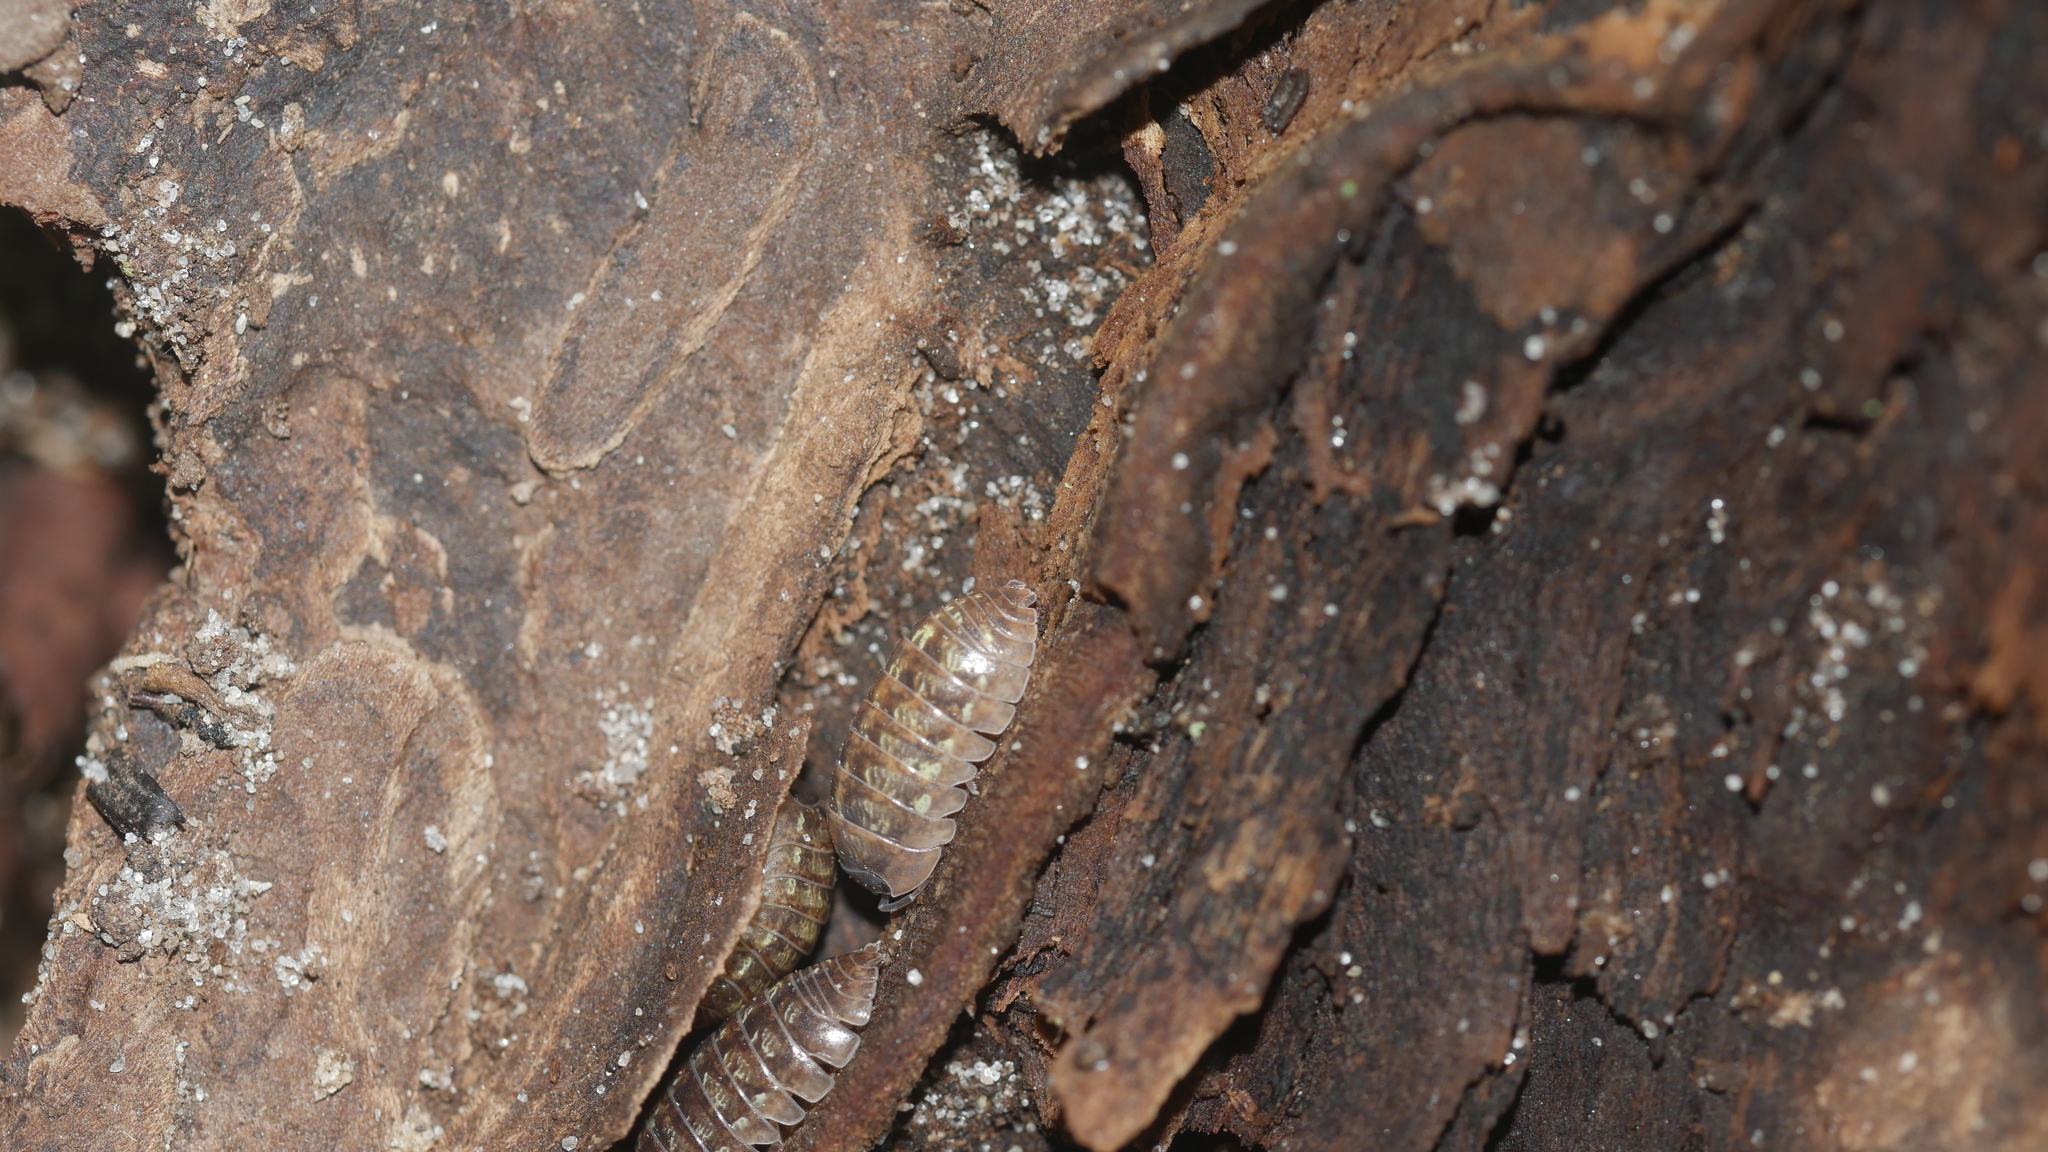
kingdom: Animalia
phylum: Arthropoda
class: Malacostraca
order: Isopoda
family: Armadillidiidae
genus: Armadillidium
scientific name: Armadillidium vulgare
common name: Common pill woodlouse
